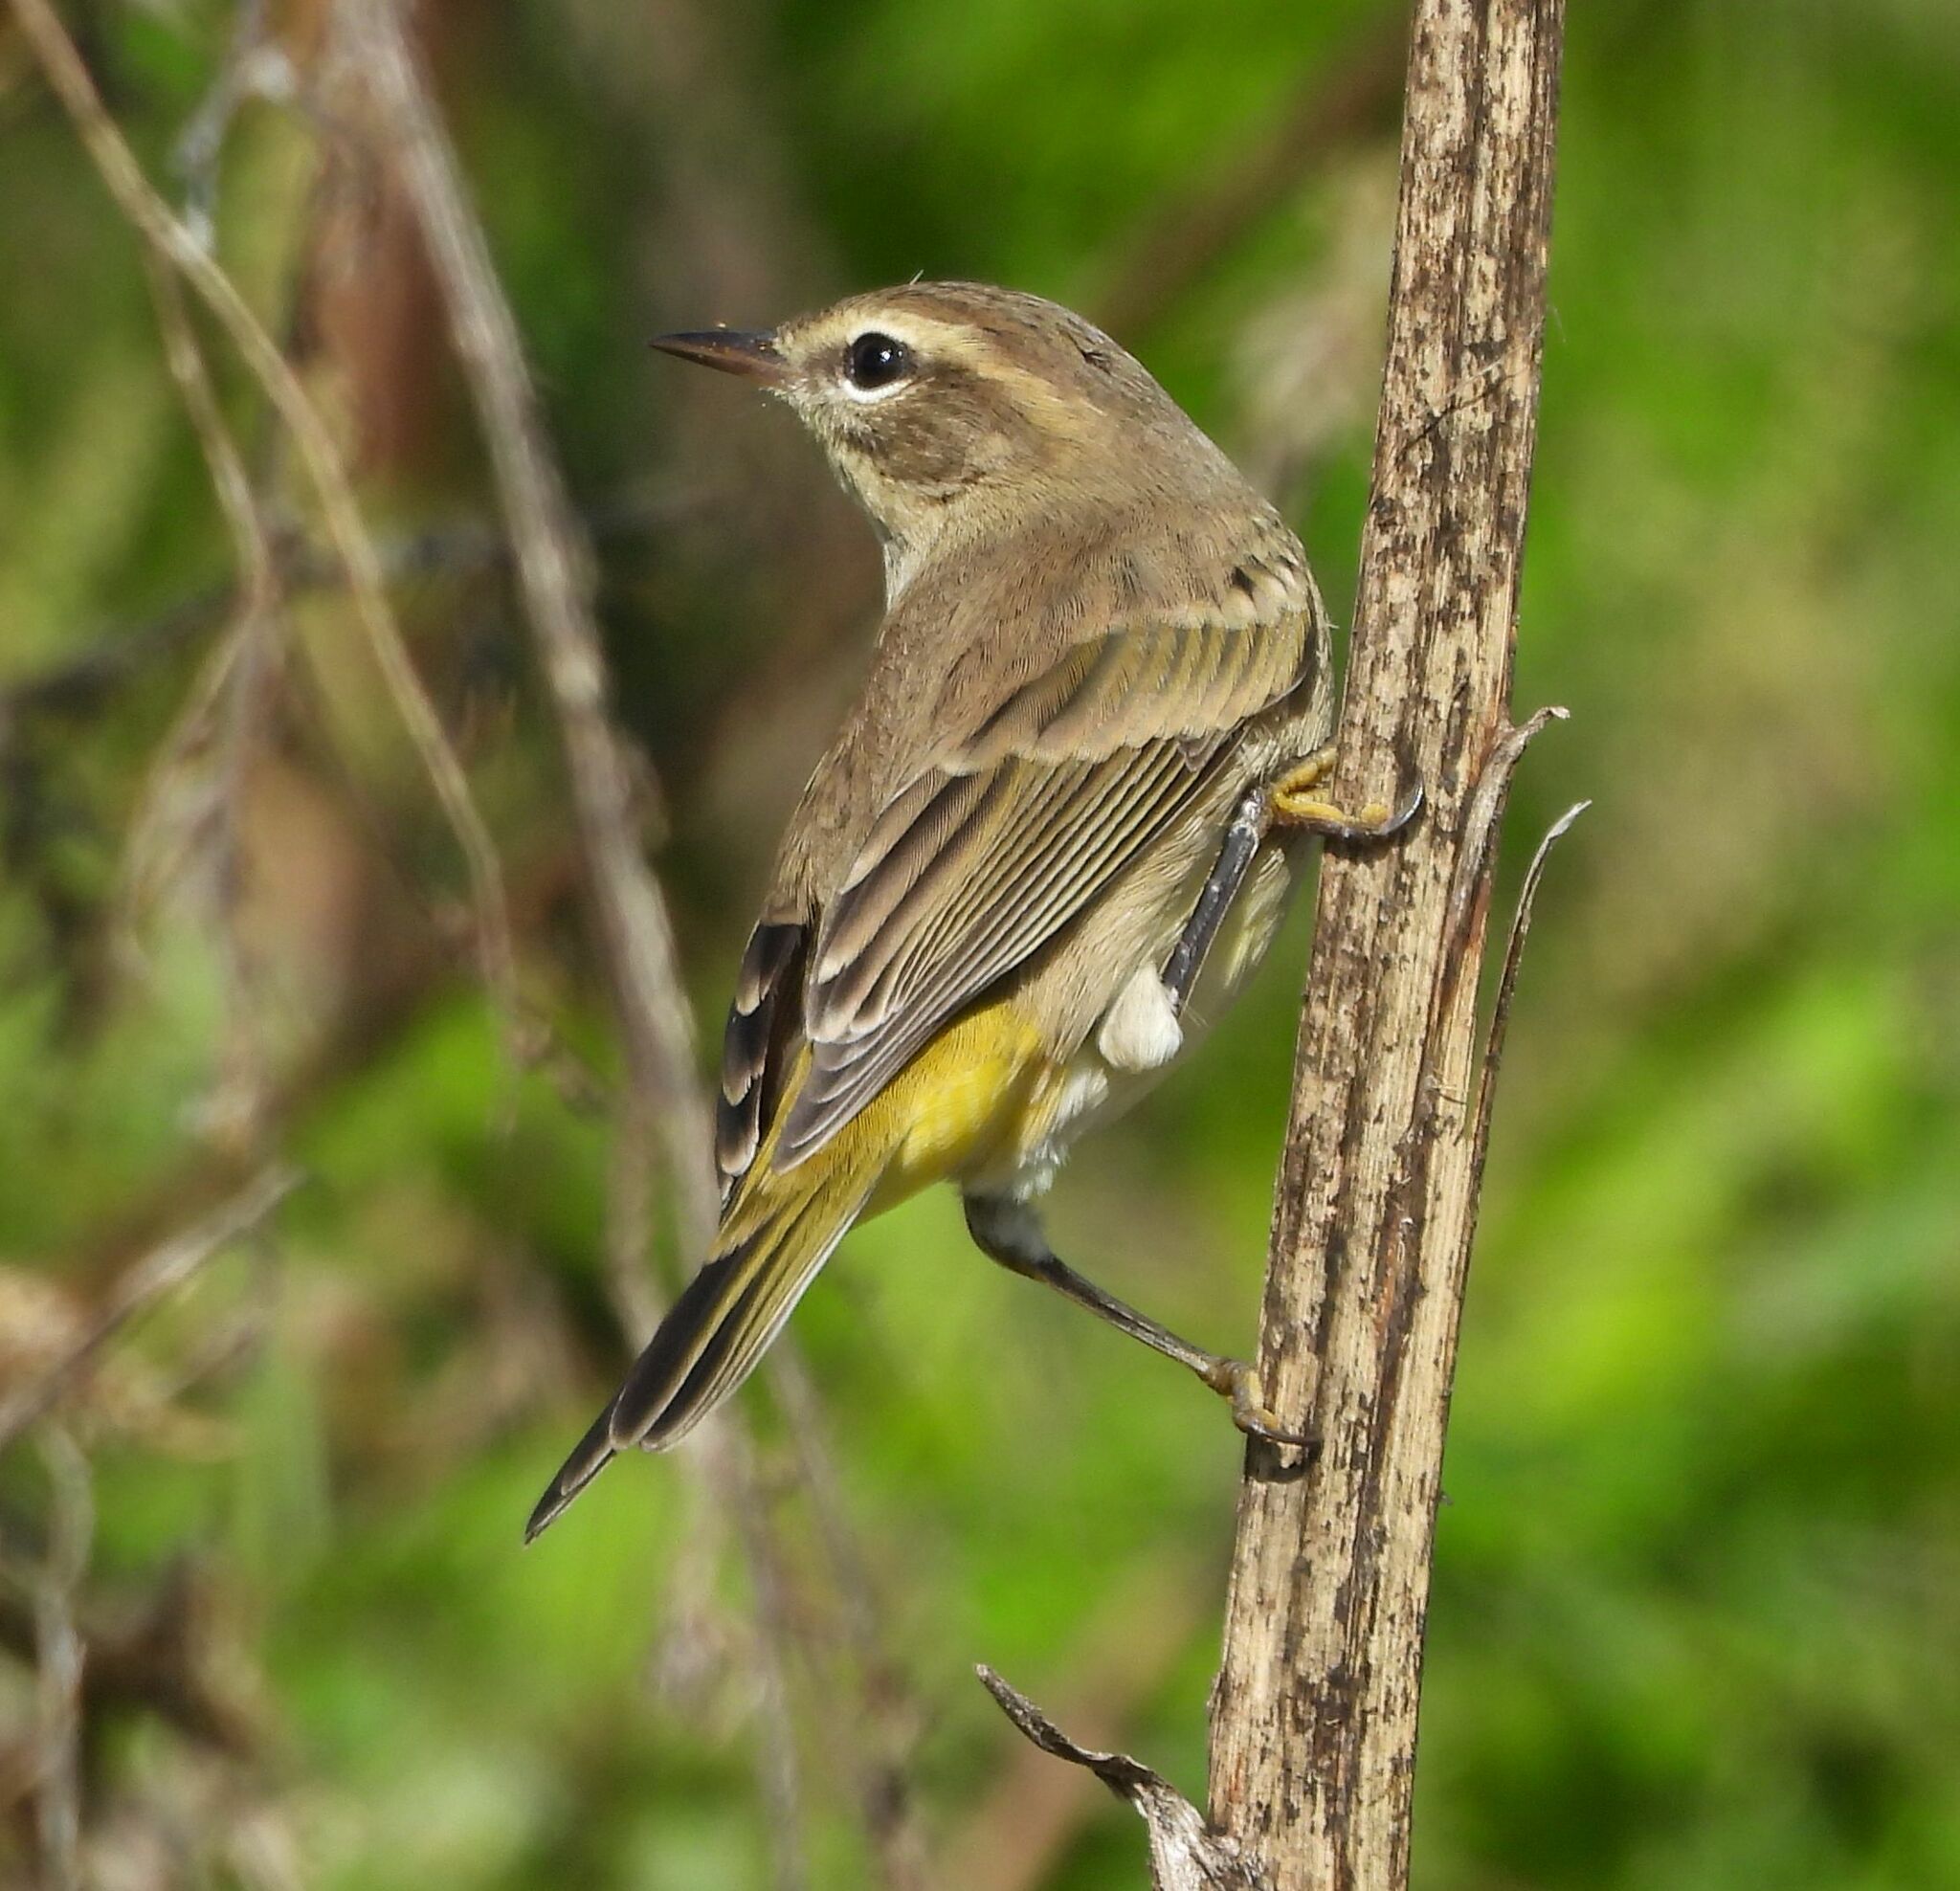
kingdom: Animalia
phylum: Chordata
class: Aves
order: Passeriformes
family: Parulidae
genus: Setophaga
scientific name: Setophaga palmarum
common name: Palm warbler
